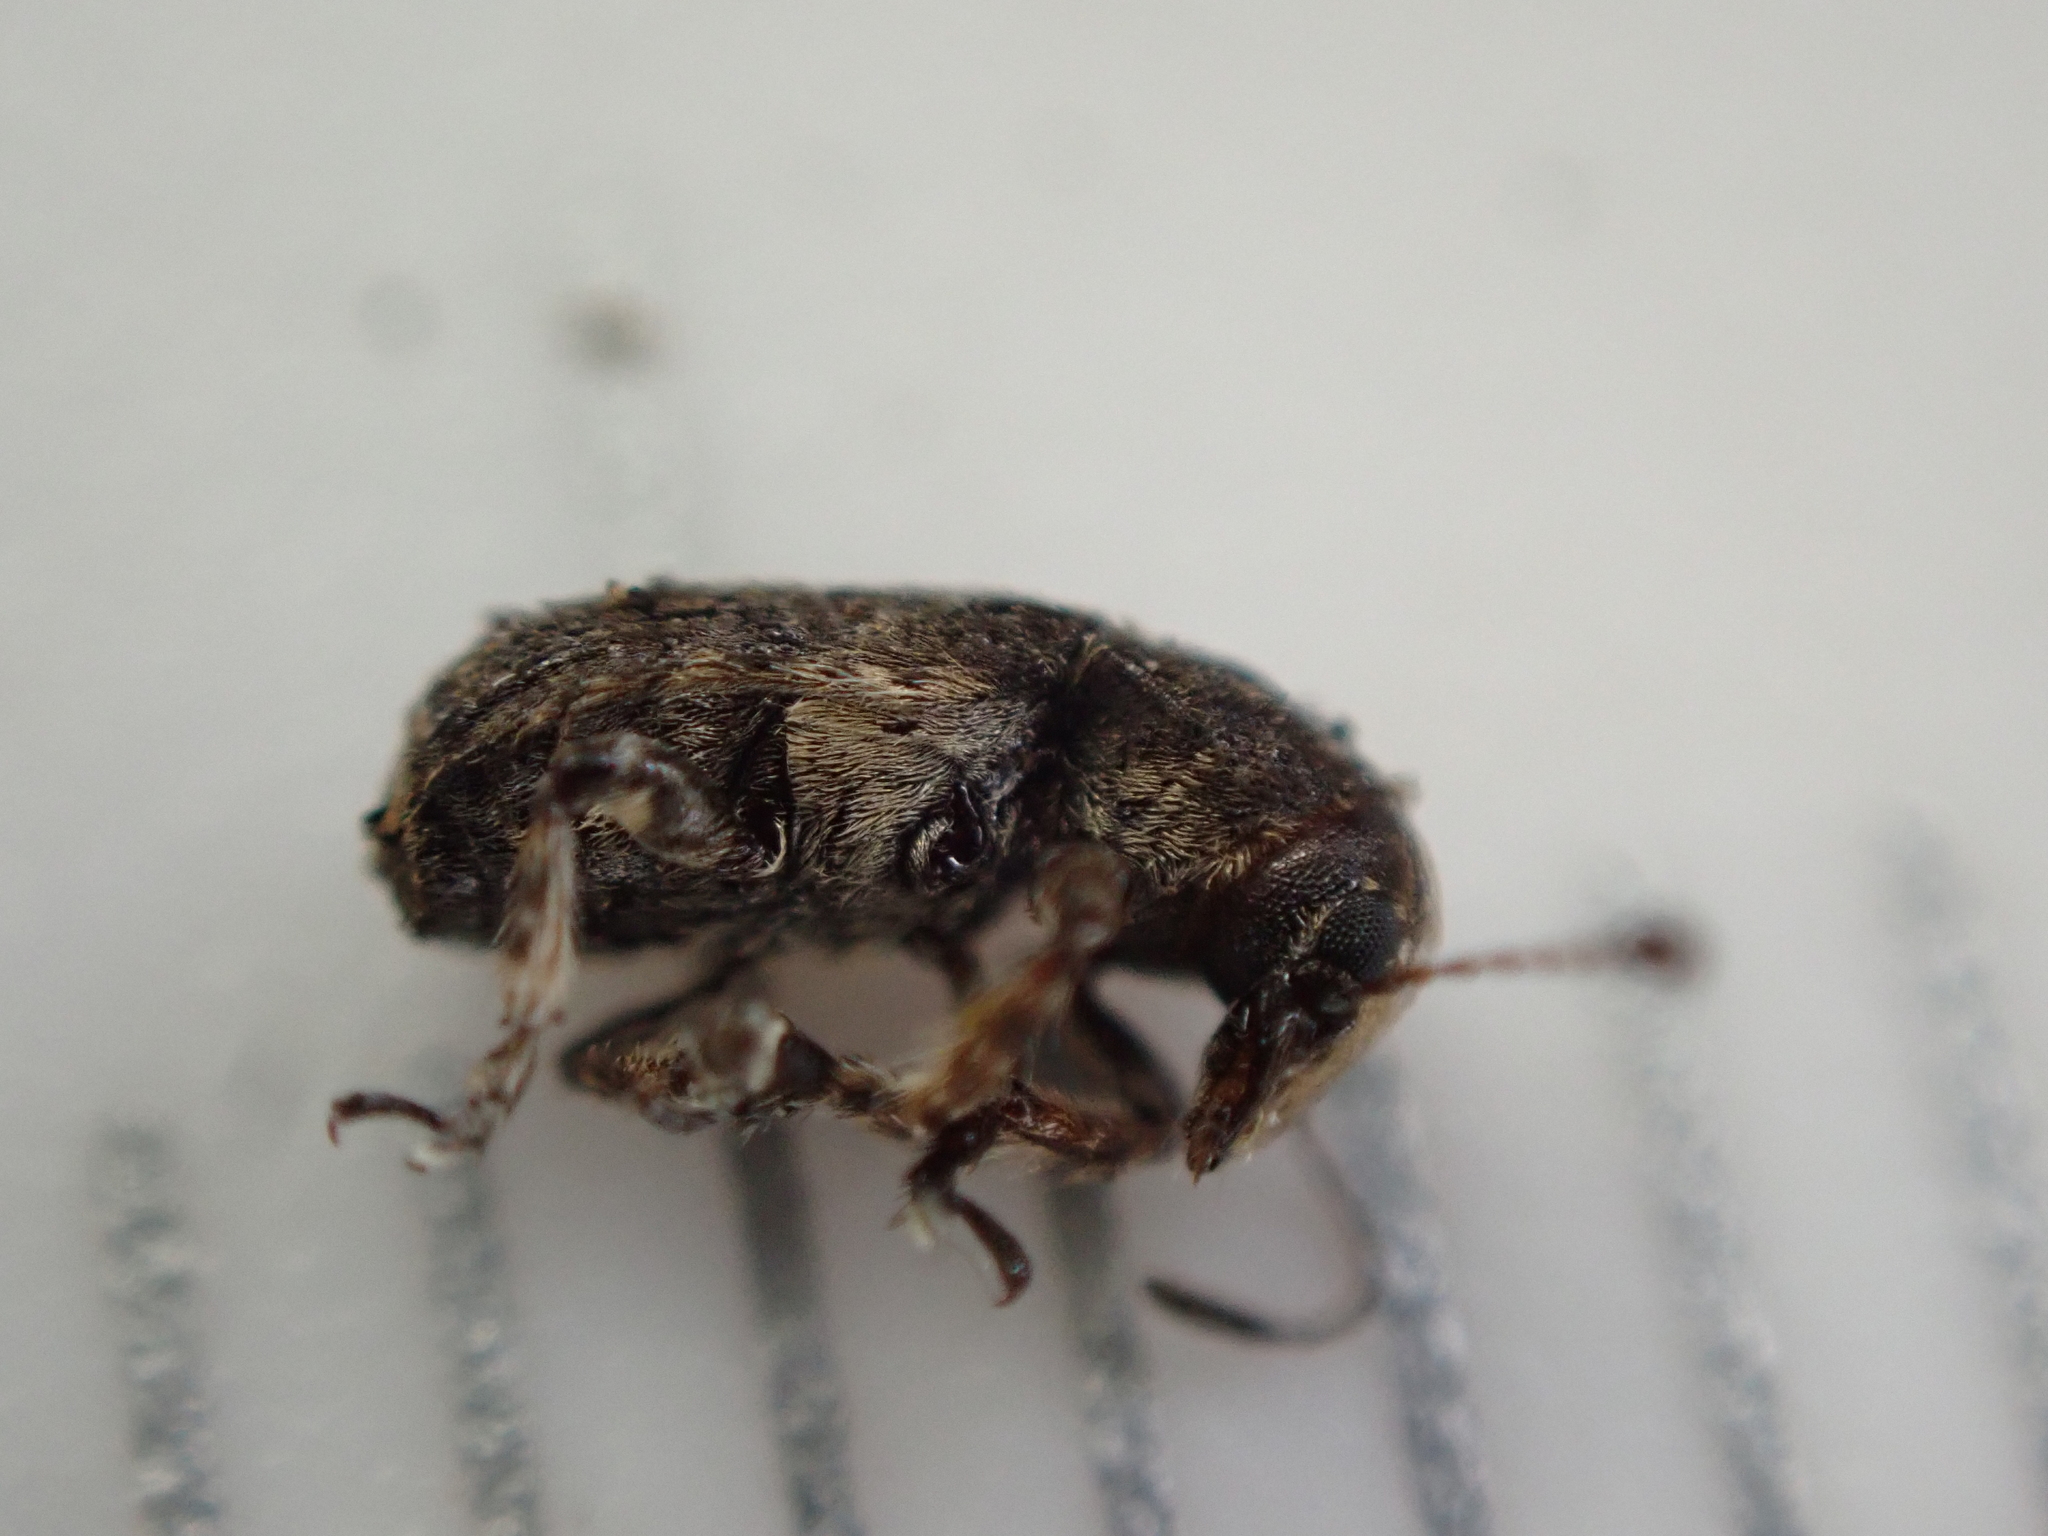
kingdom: Animalia
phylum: Arthropoda
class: Insecta
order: Coleoptera
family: Anthribidae
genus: Toxonotus
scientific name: Toxonotus cornutus
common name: Fungus weevil
